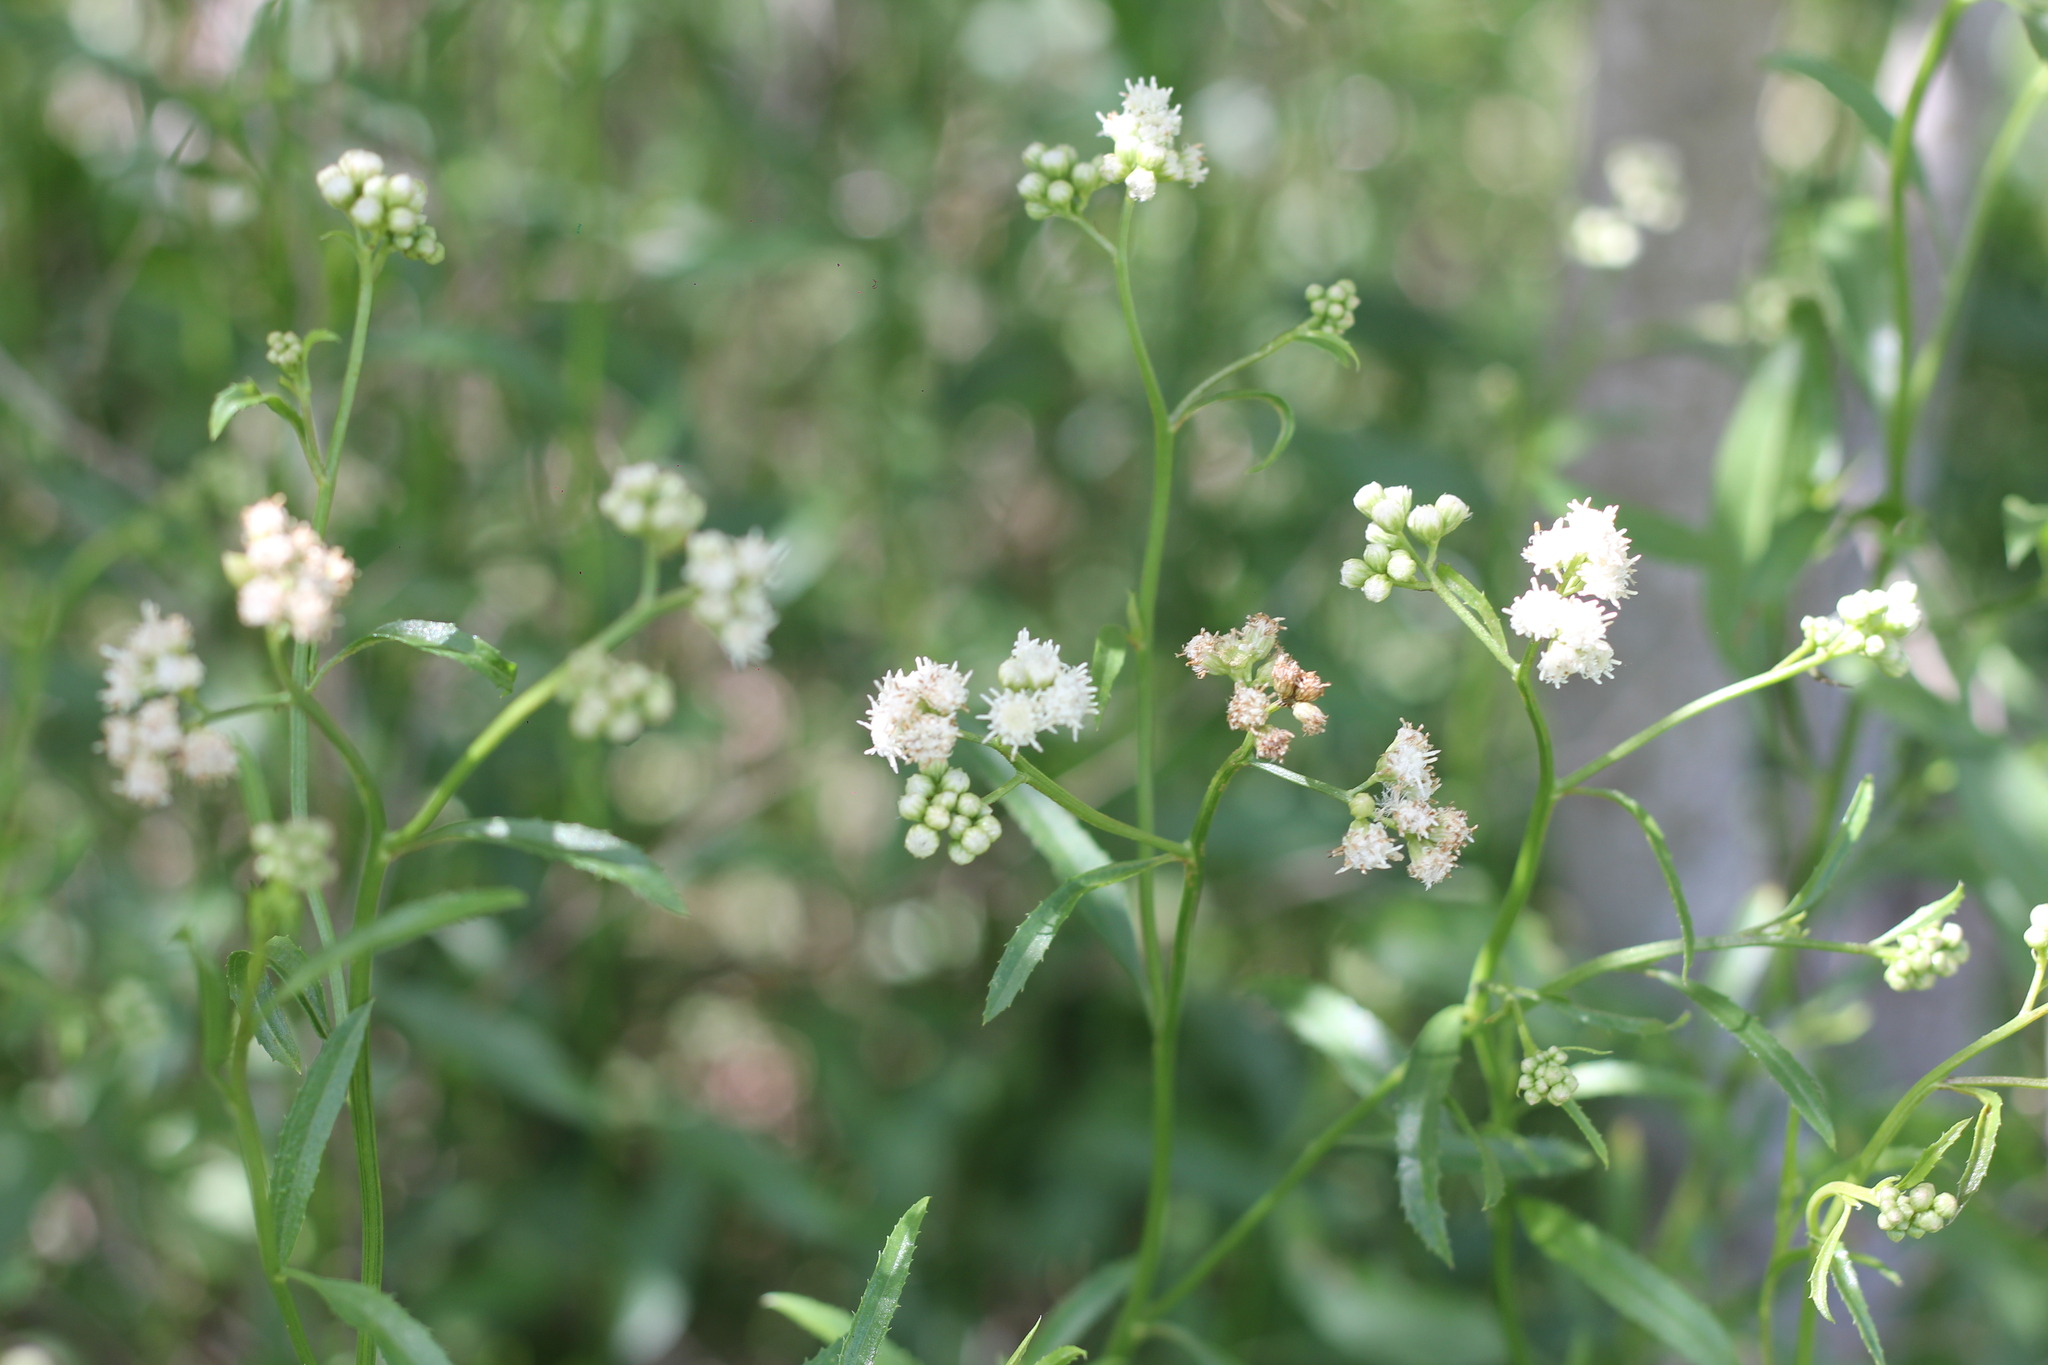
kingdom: Plantae
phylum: Tracheophyta
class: Magnoliopsida
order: Asterales
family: Asteraceae
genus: Baccharis
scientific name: Baccharis glutinosa
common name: Saltmarsh baccharis
